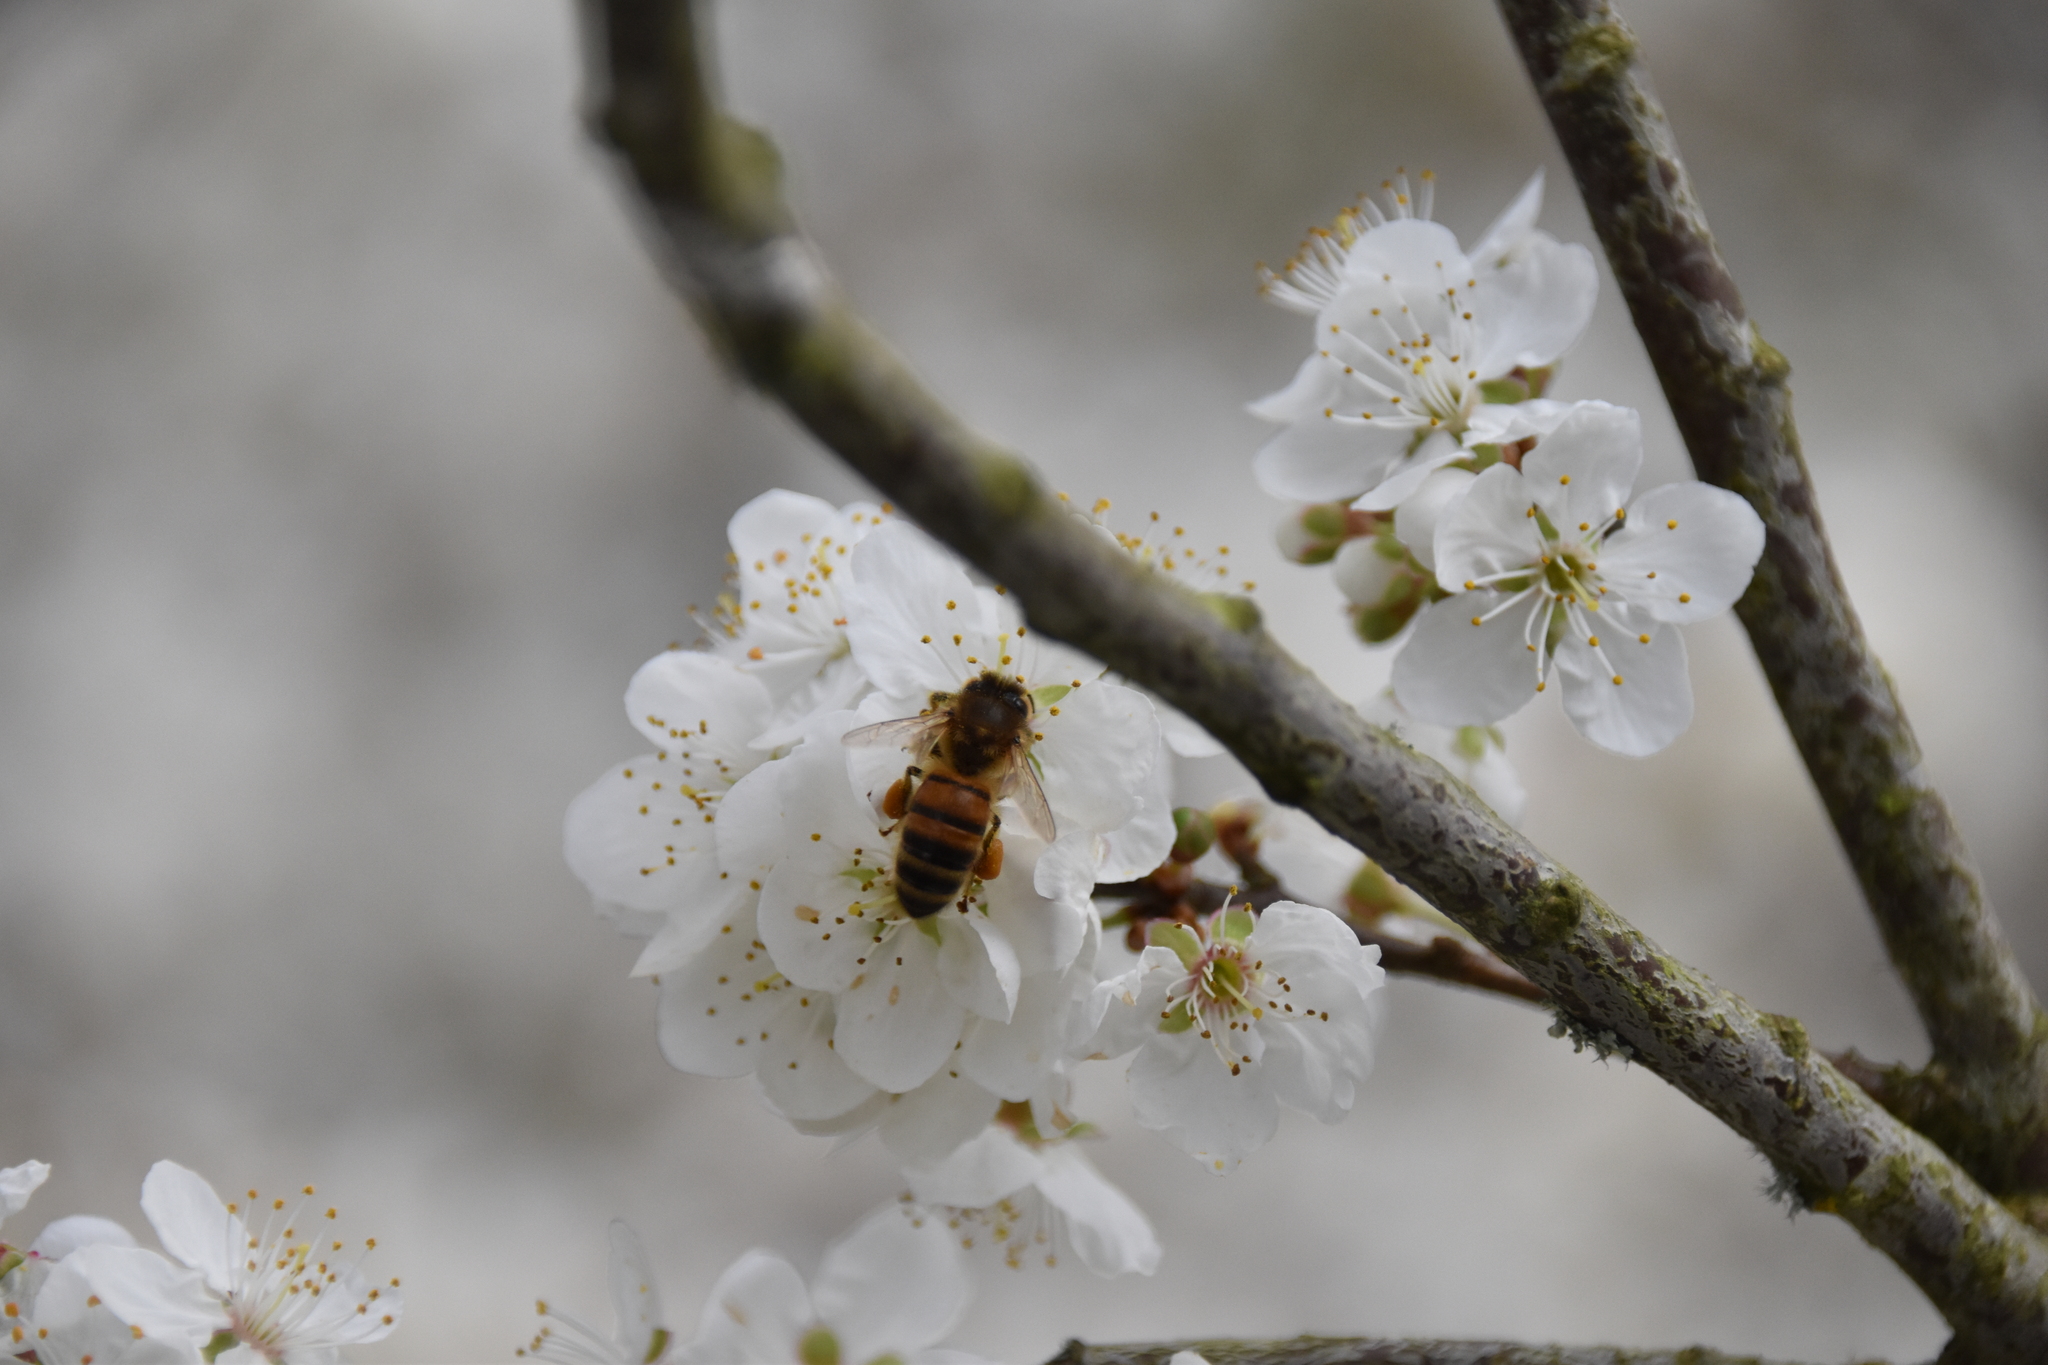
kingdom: Animalia
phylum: Arthropoda
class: Insecta
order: Hymenoptera
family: Apidae
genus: Apis
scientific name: Apis mellifera
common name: Honey bee
